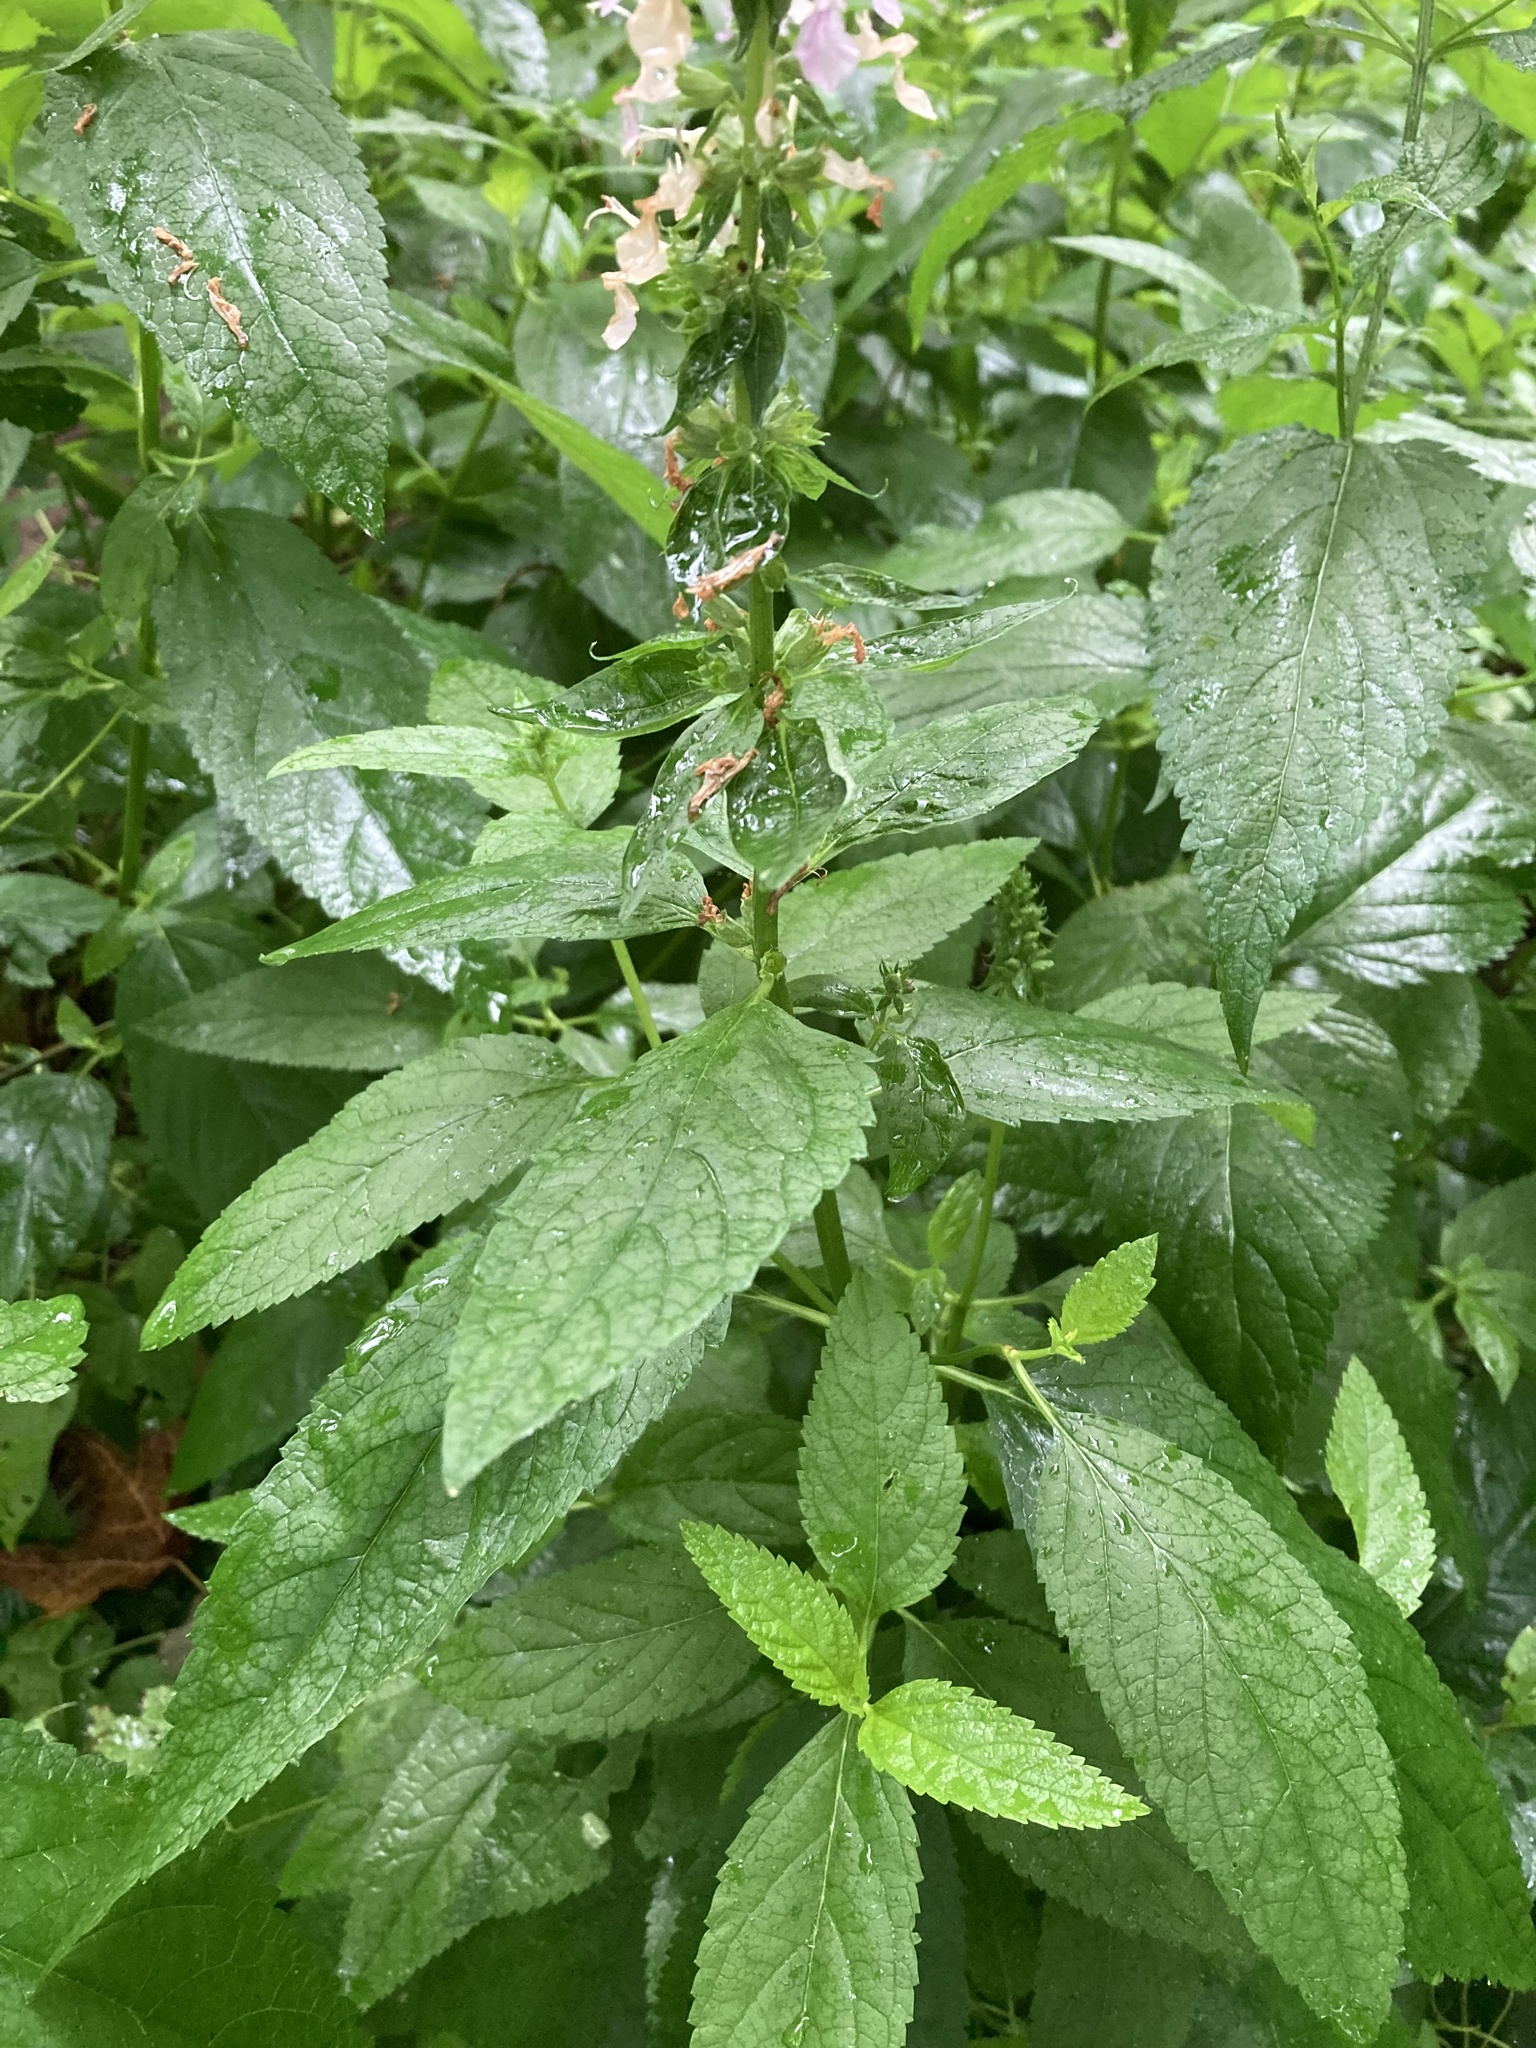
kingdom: Plantae
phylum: Tracheophyta
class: Magnoliopsida
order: Lamiales
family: Lamiaceae
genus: Teucrium
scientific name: Teucrium canadense
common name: American germander
